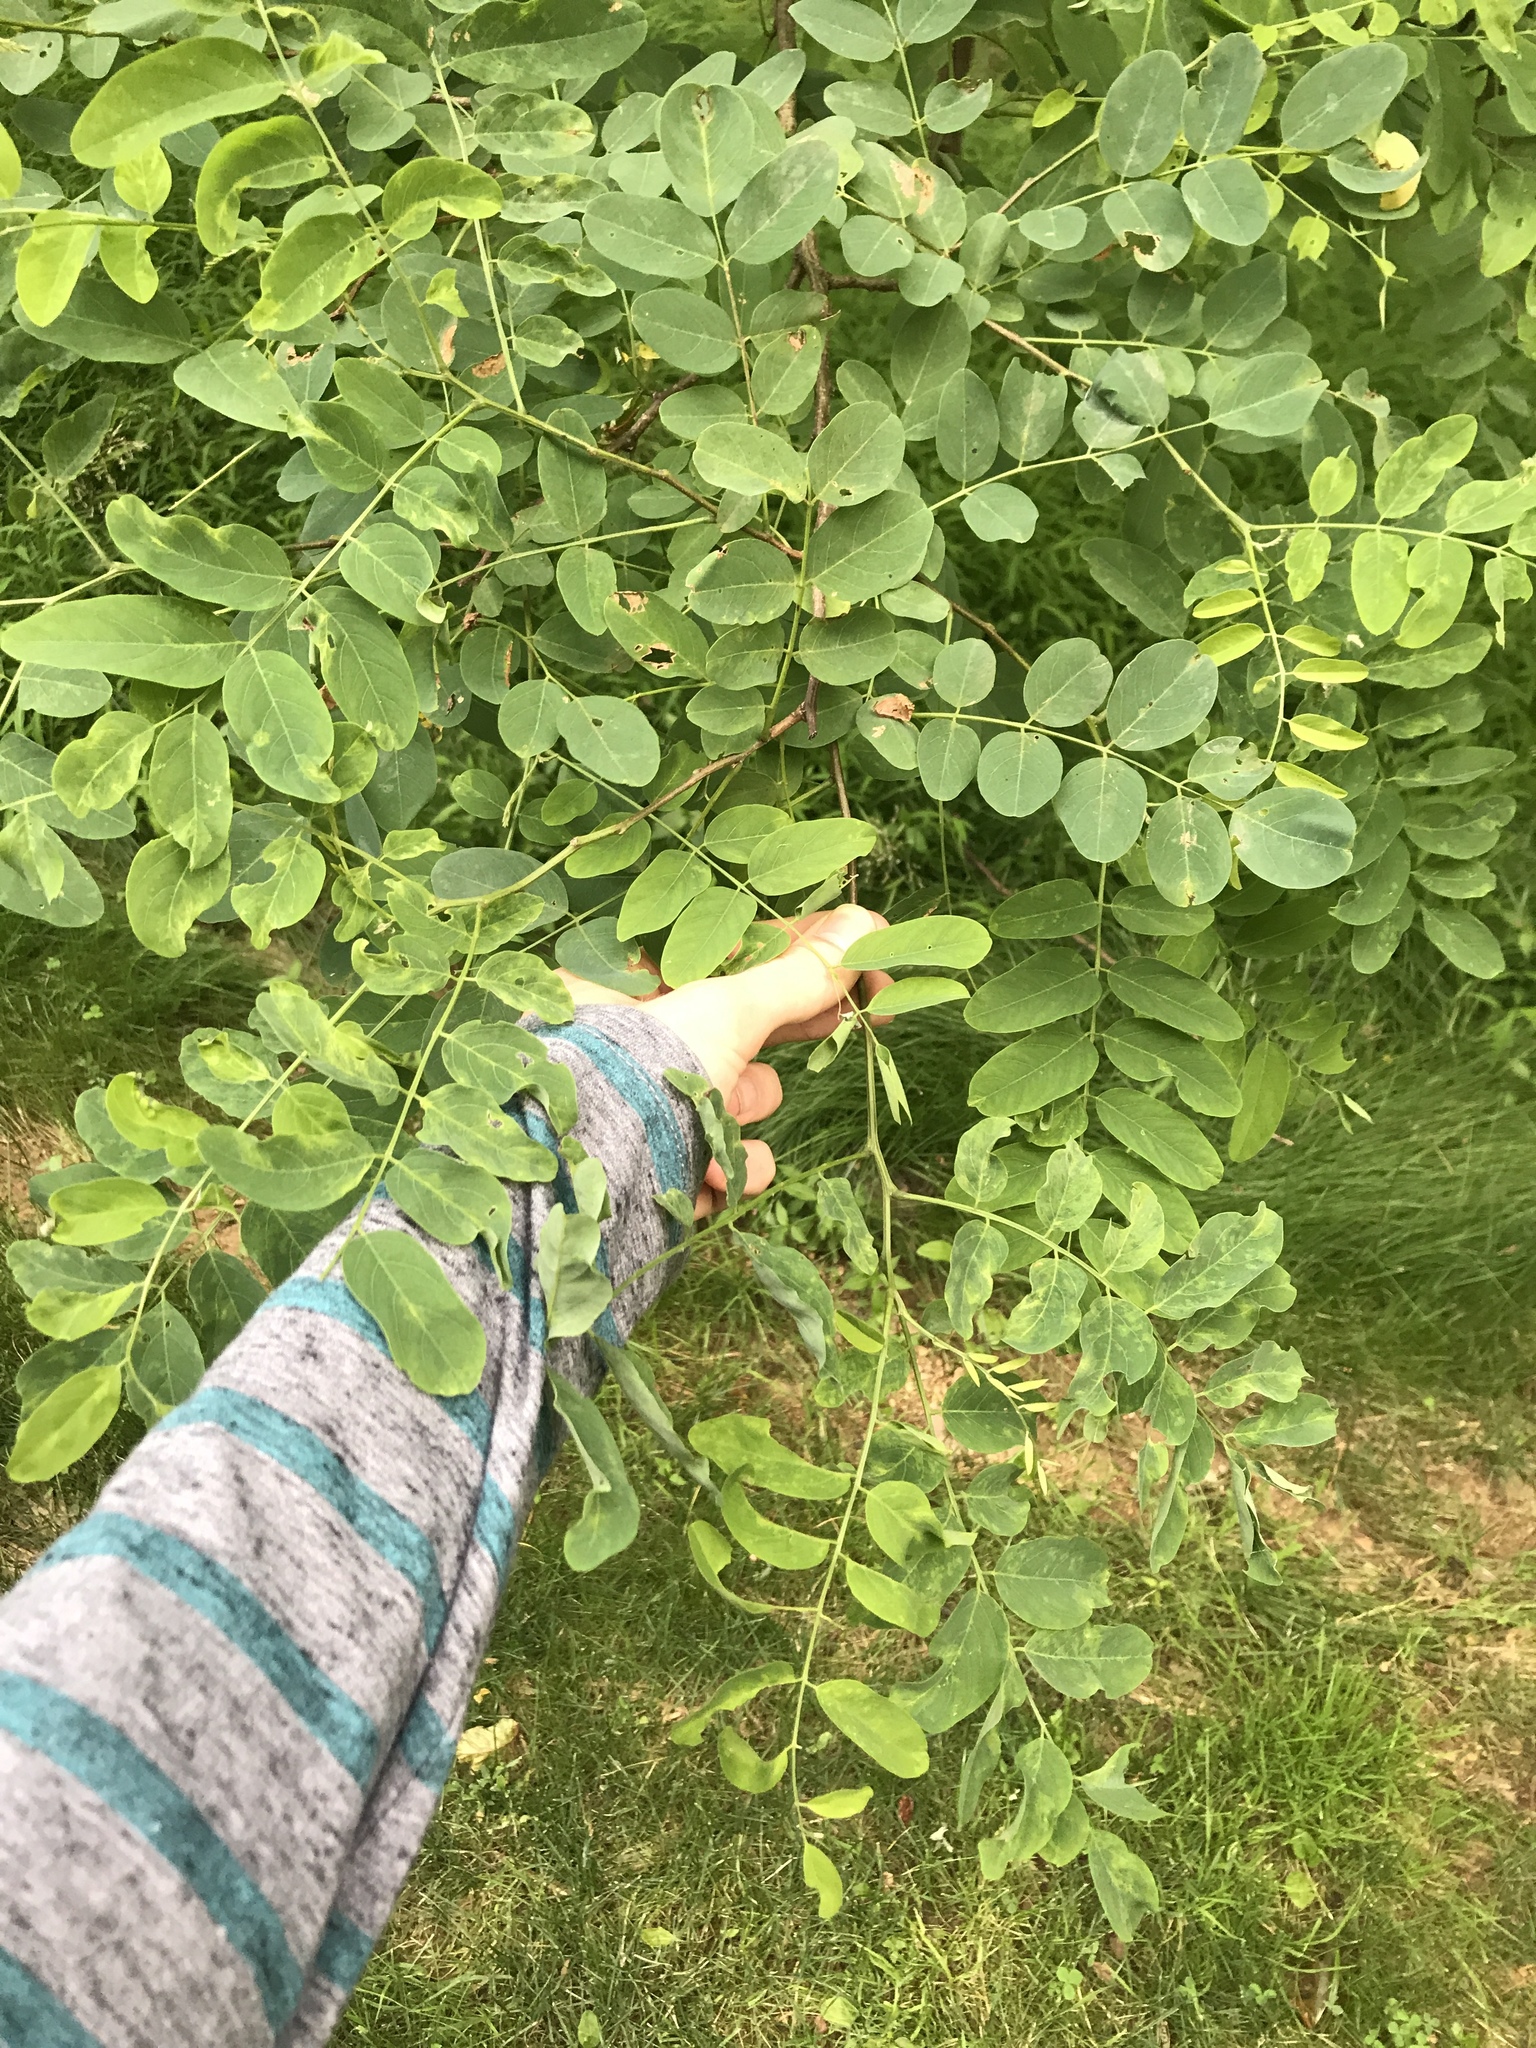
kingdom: Plantae
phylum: Tracheophyta
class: Magnoliopsida
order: Fabales
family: Fabaceae
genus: Robinia
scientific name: Robinia pseudoacacia
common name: Black locust
